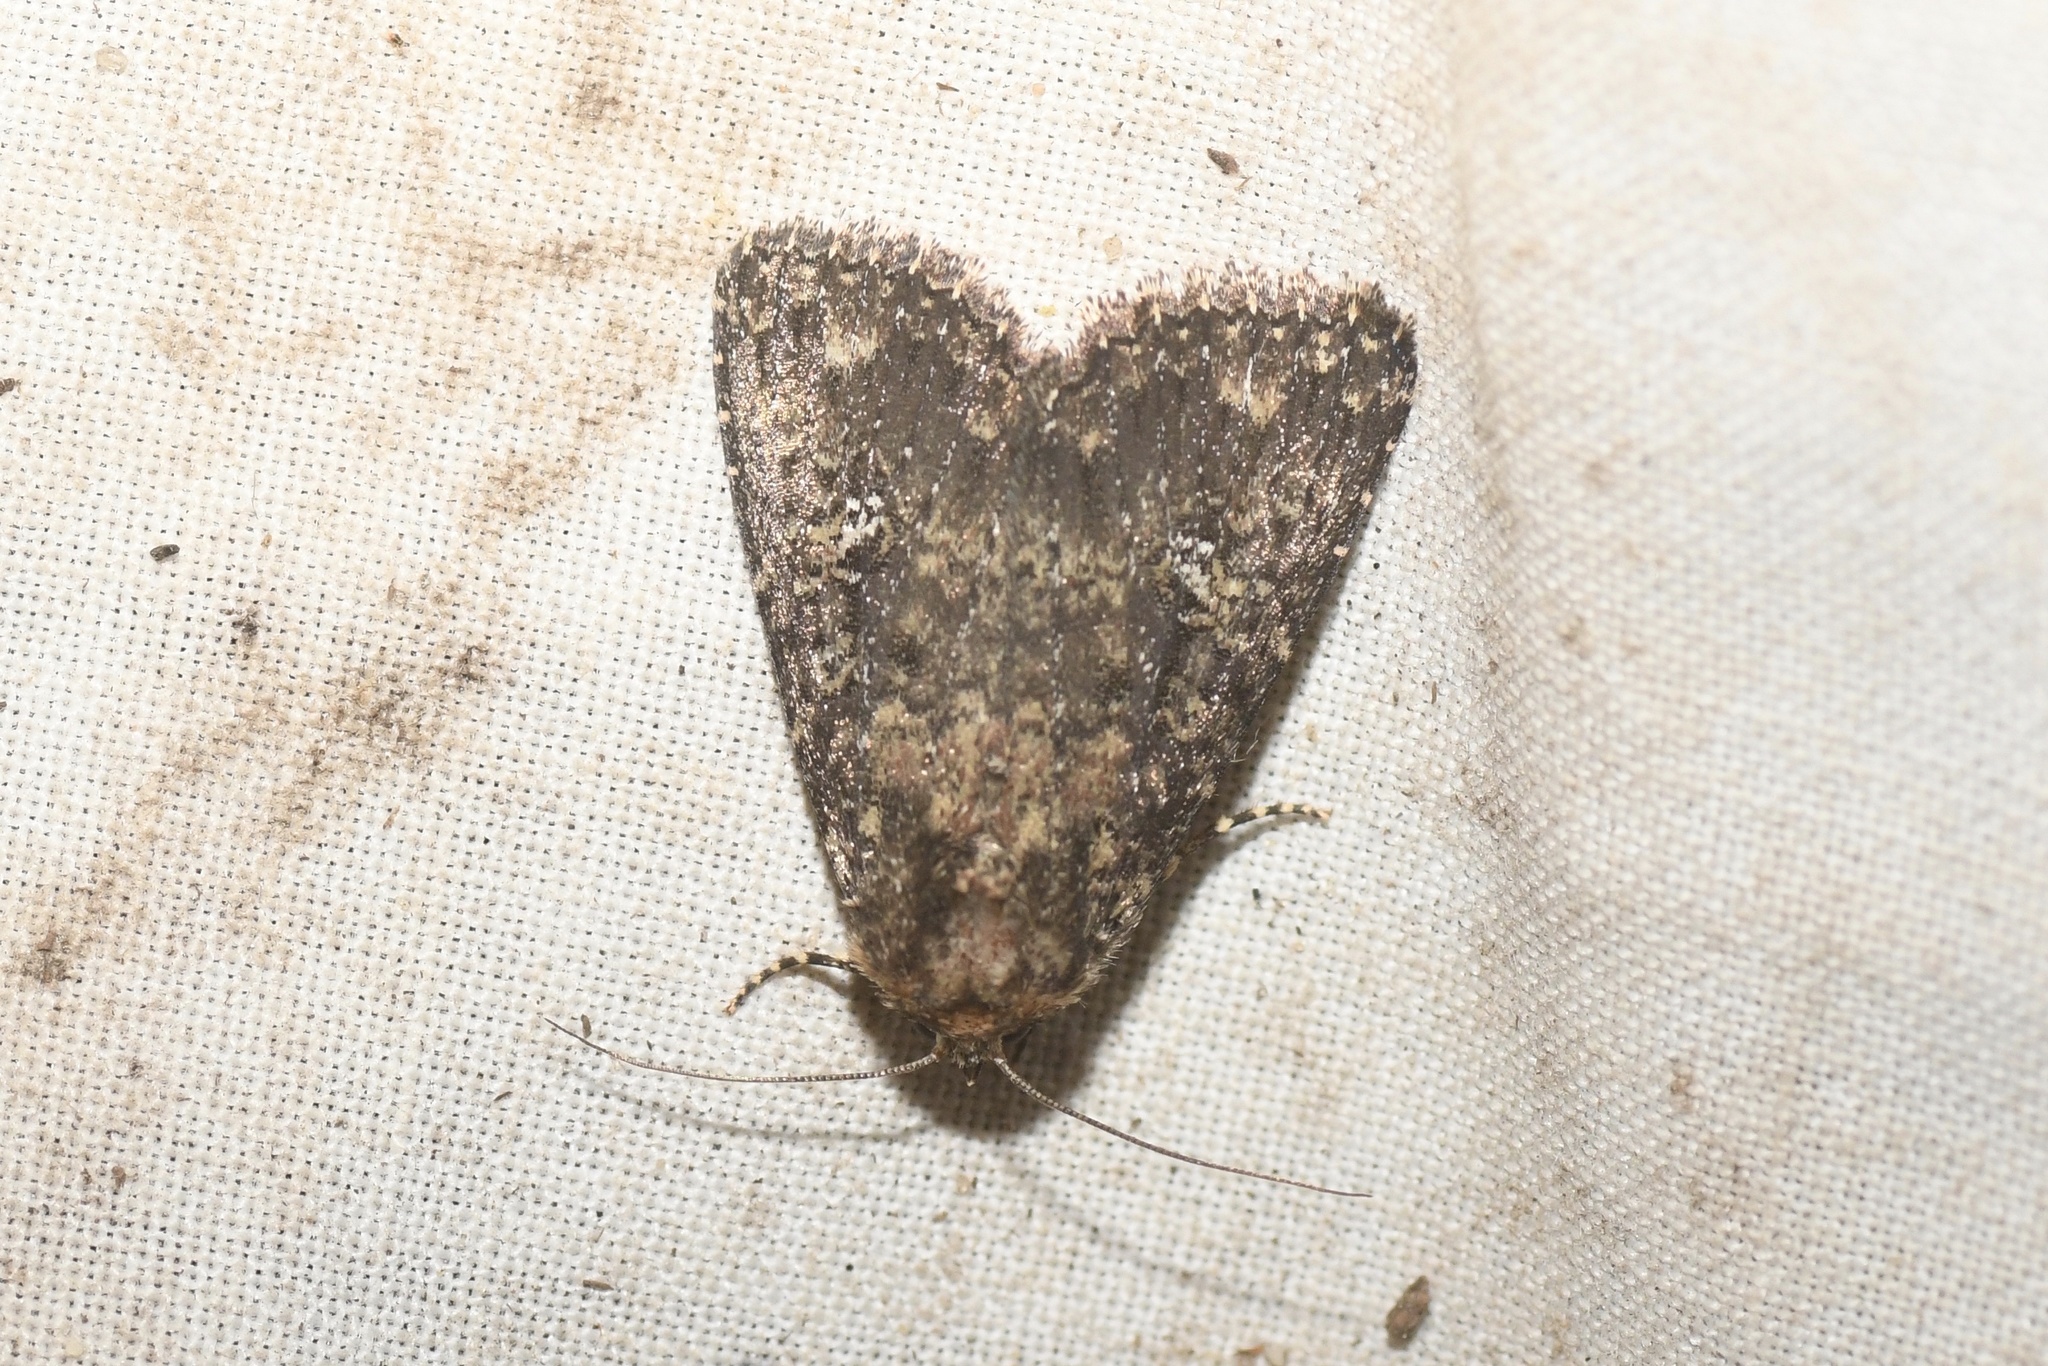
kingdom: Animalia
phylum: Arthropoda
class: Insecta
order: Lepidoptera
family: Noctuidae
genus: Condica
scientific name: Condica vecors
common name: Dusky groundling
